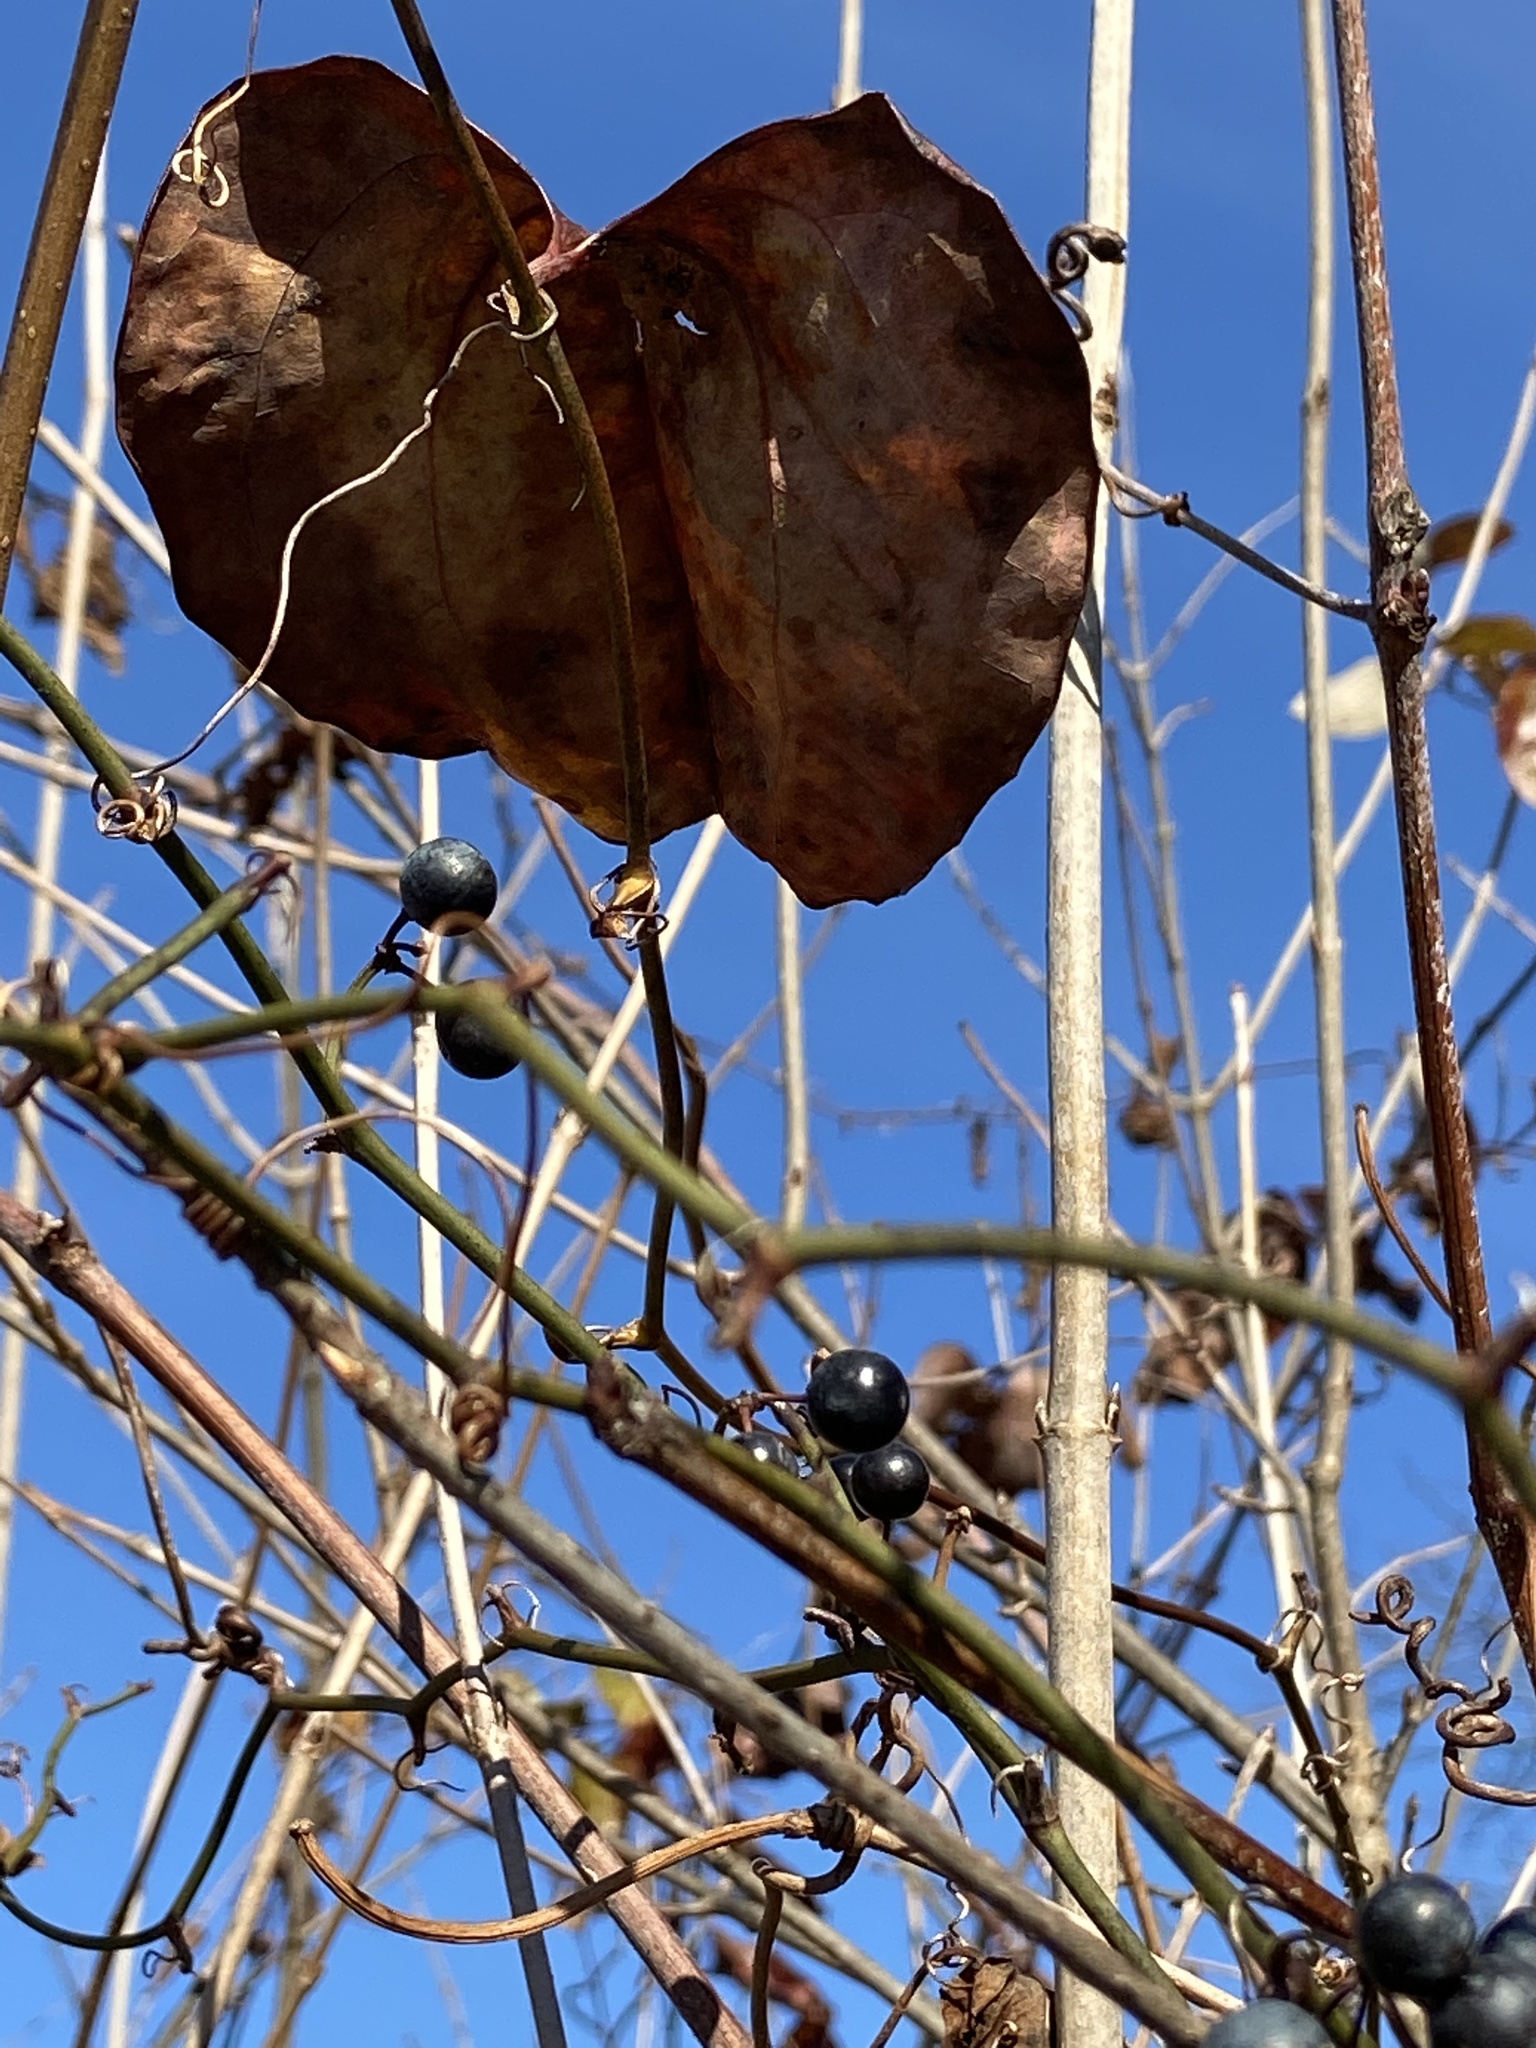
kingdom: Plantae
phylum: Tracheophyta
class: Liliopsida
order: Liliales
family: Smilacaceae
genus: Smilax
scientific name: Smilax rotundifolia
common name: Bullbriar
